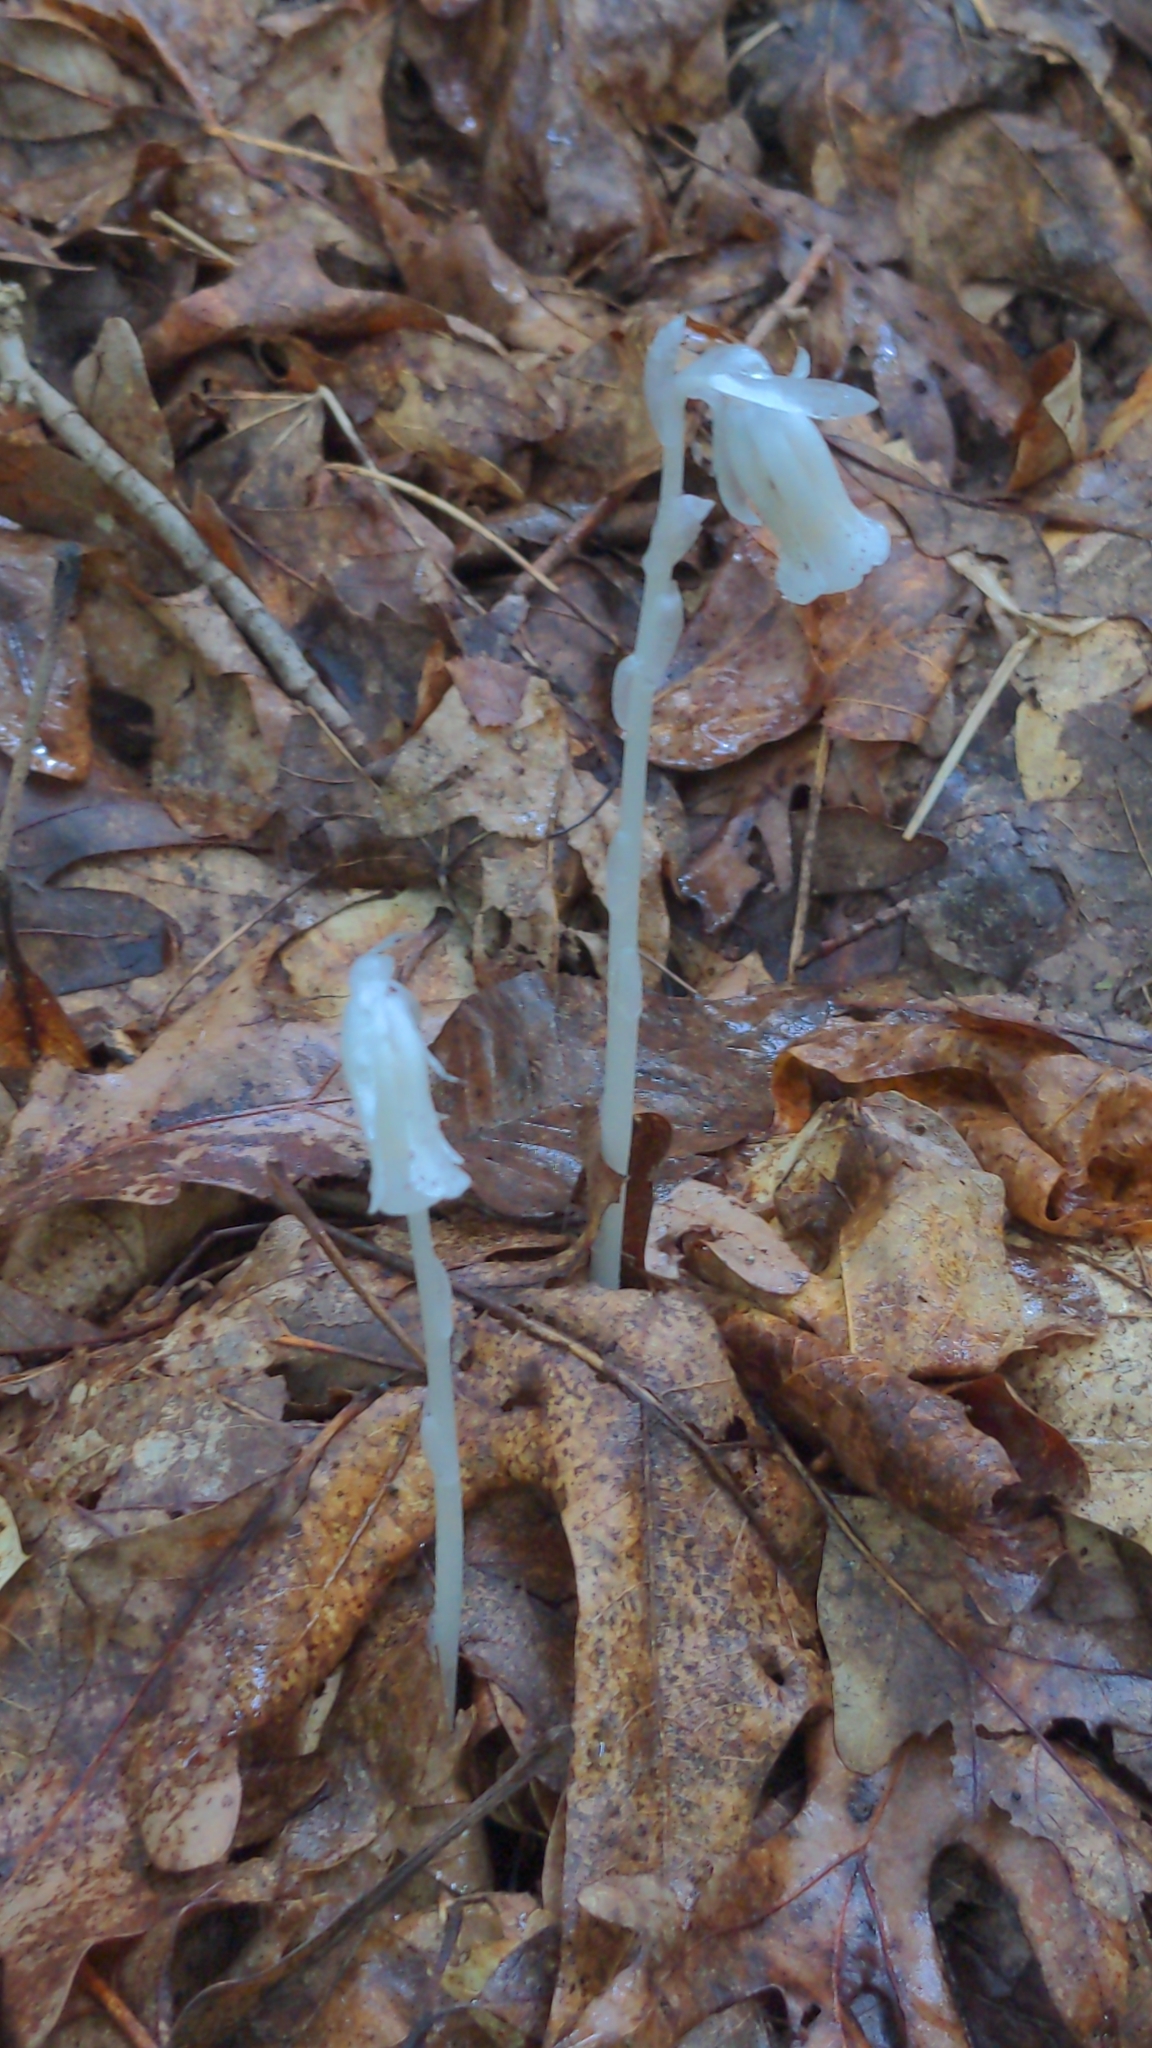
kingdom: Plantae
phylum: Tracheophyta
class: Magnoliopsida
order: Ericales
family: Ericaceae
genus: Monotropa
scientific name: Monotropa uniflora
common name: Convulsion root
